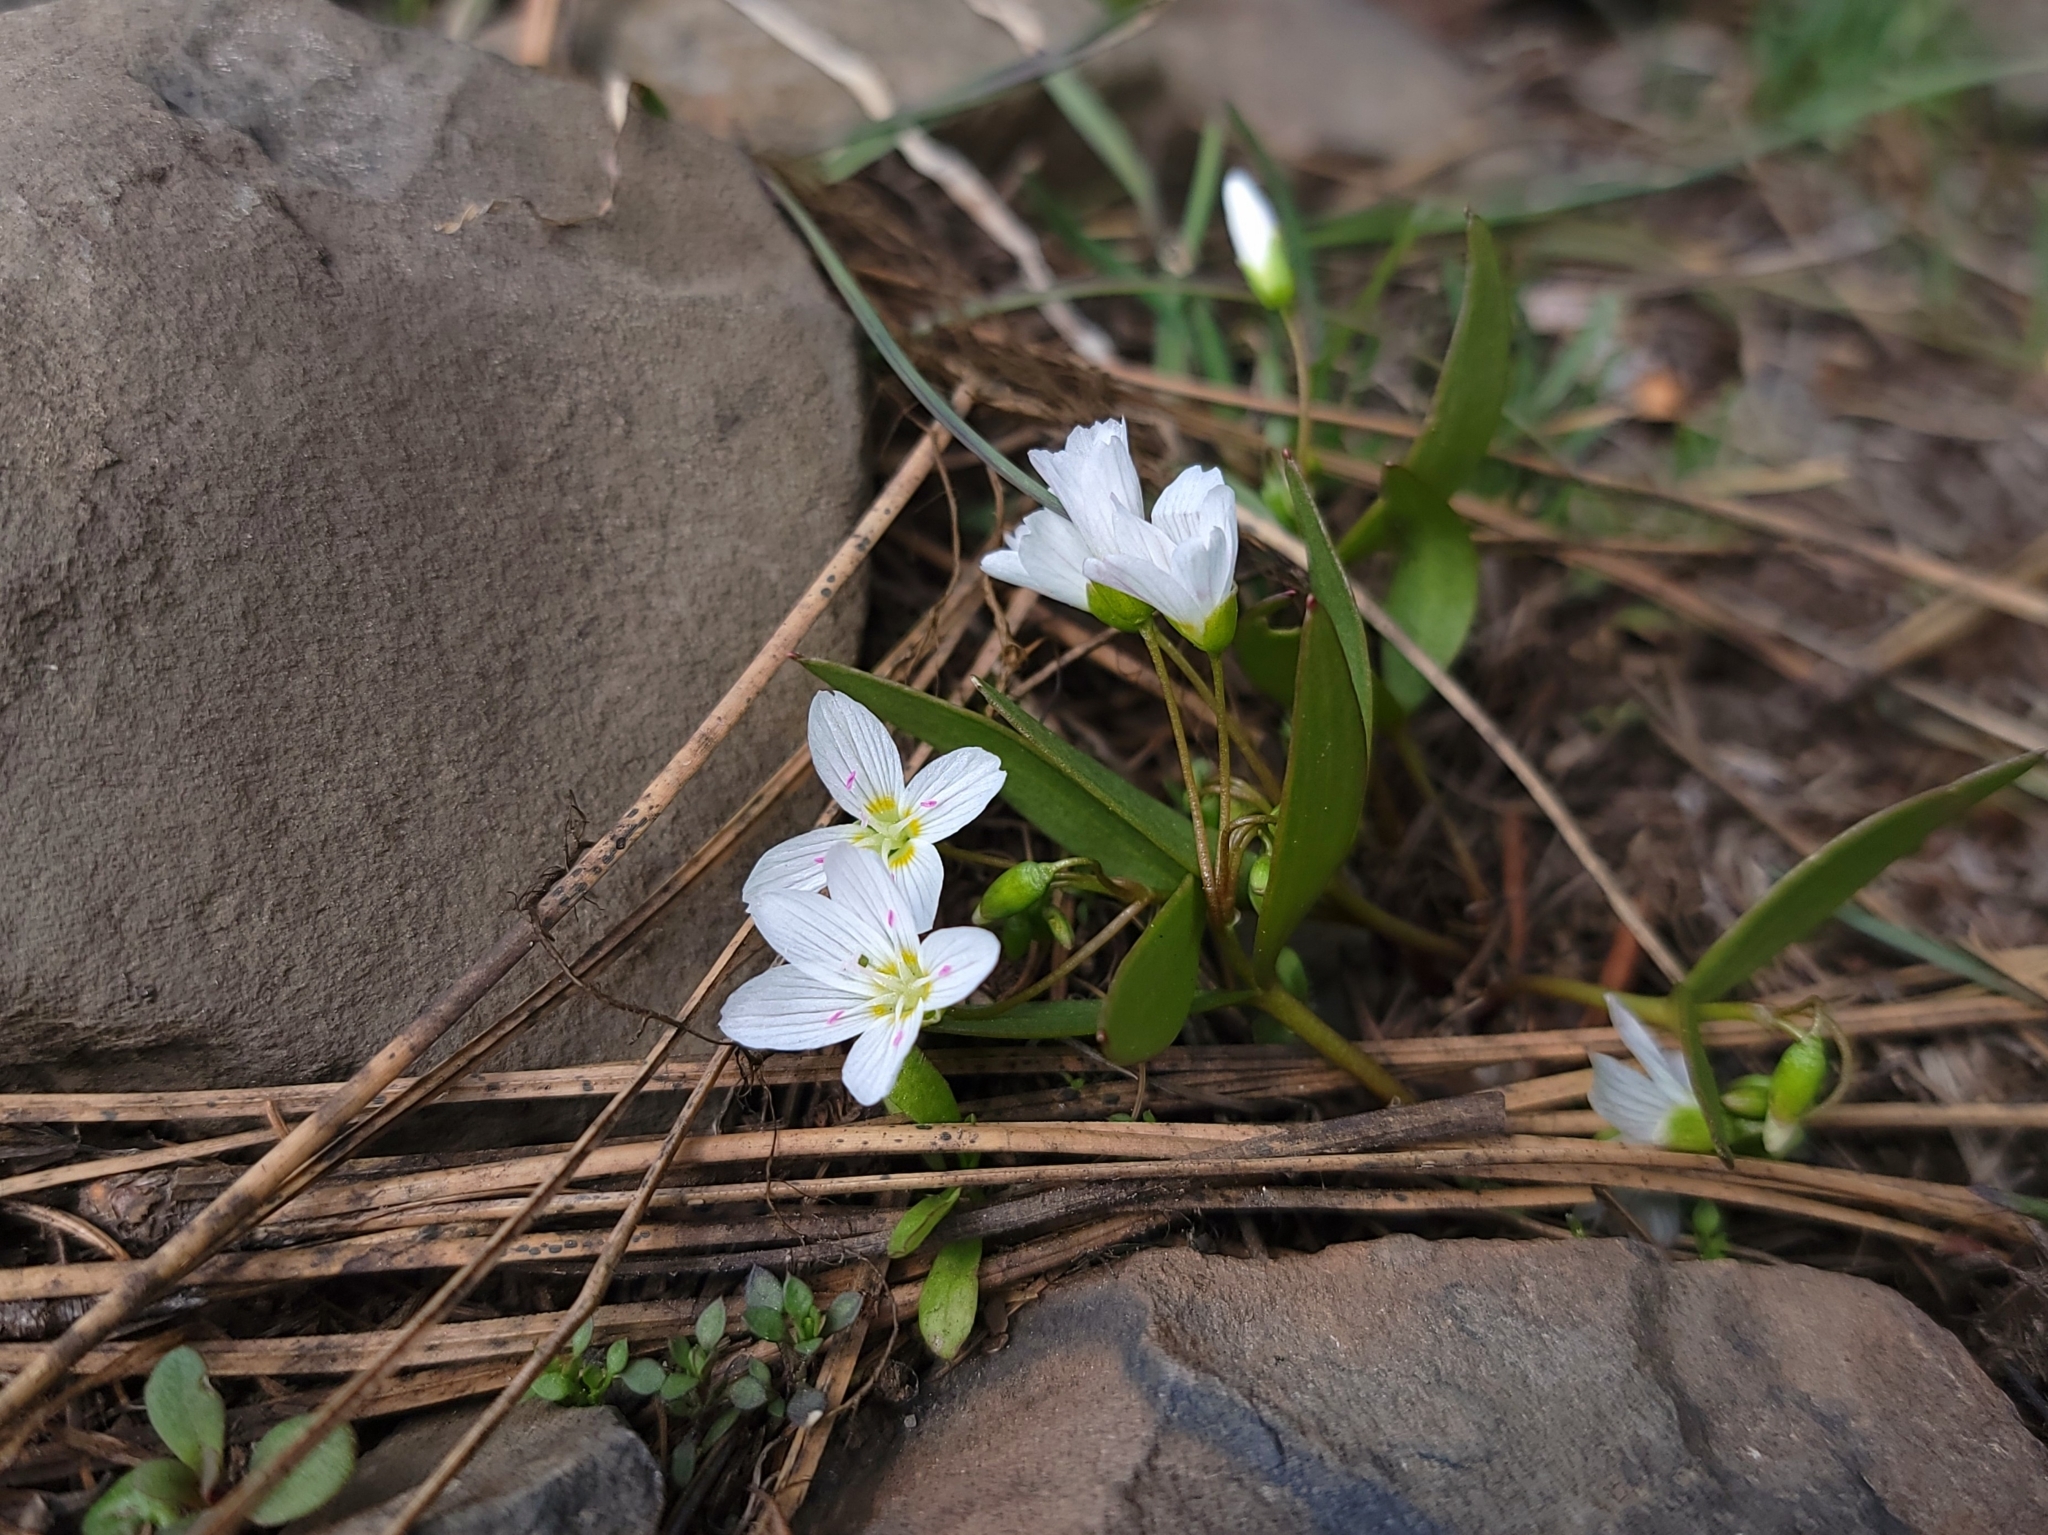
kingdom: Plantae
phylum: Tracheophyta
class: Magnoliopsida
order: Caryophyllales
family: Montiaceae
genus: Claytonia
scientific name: Claytonia lanceolata
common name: Western spring-beauty
